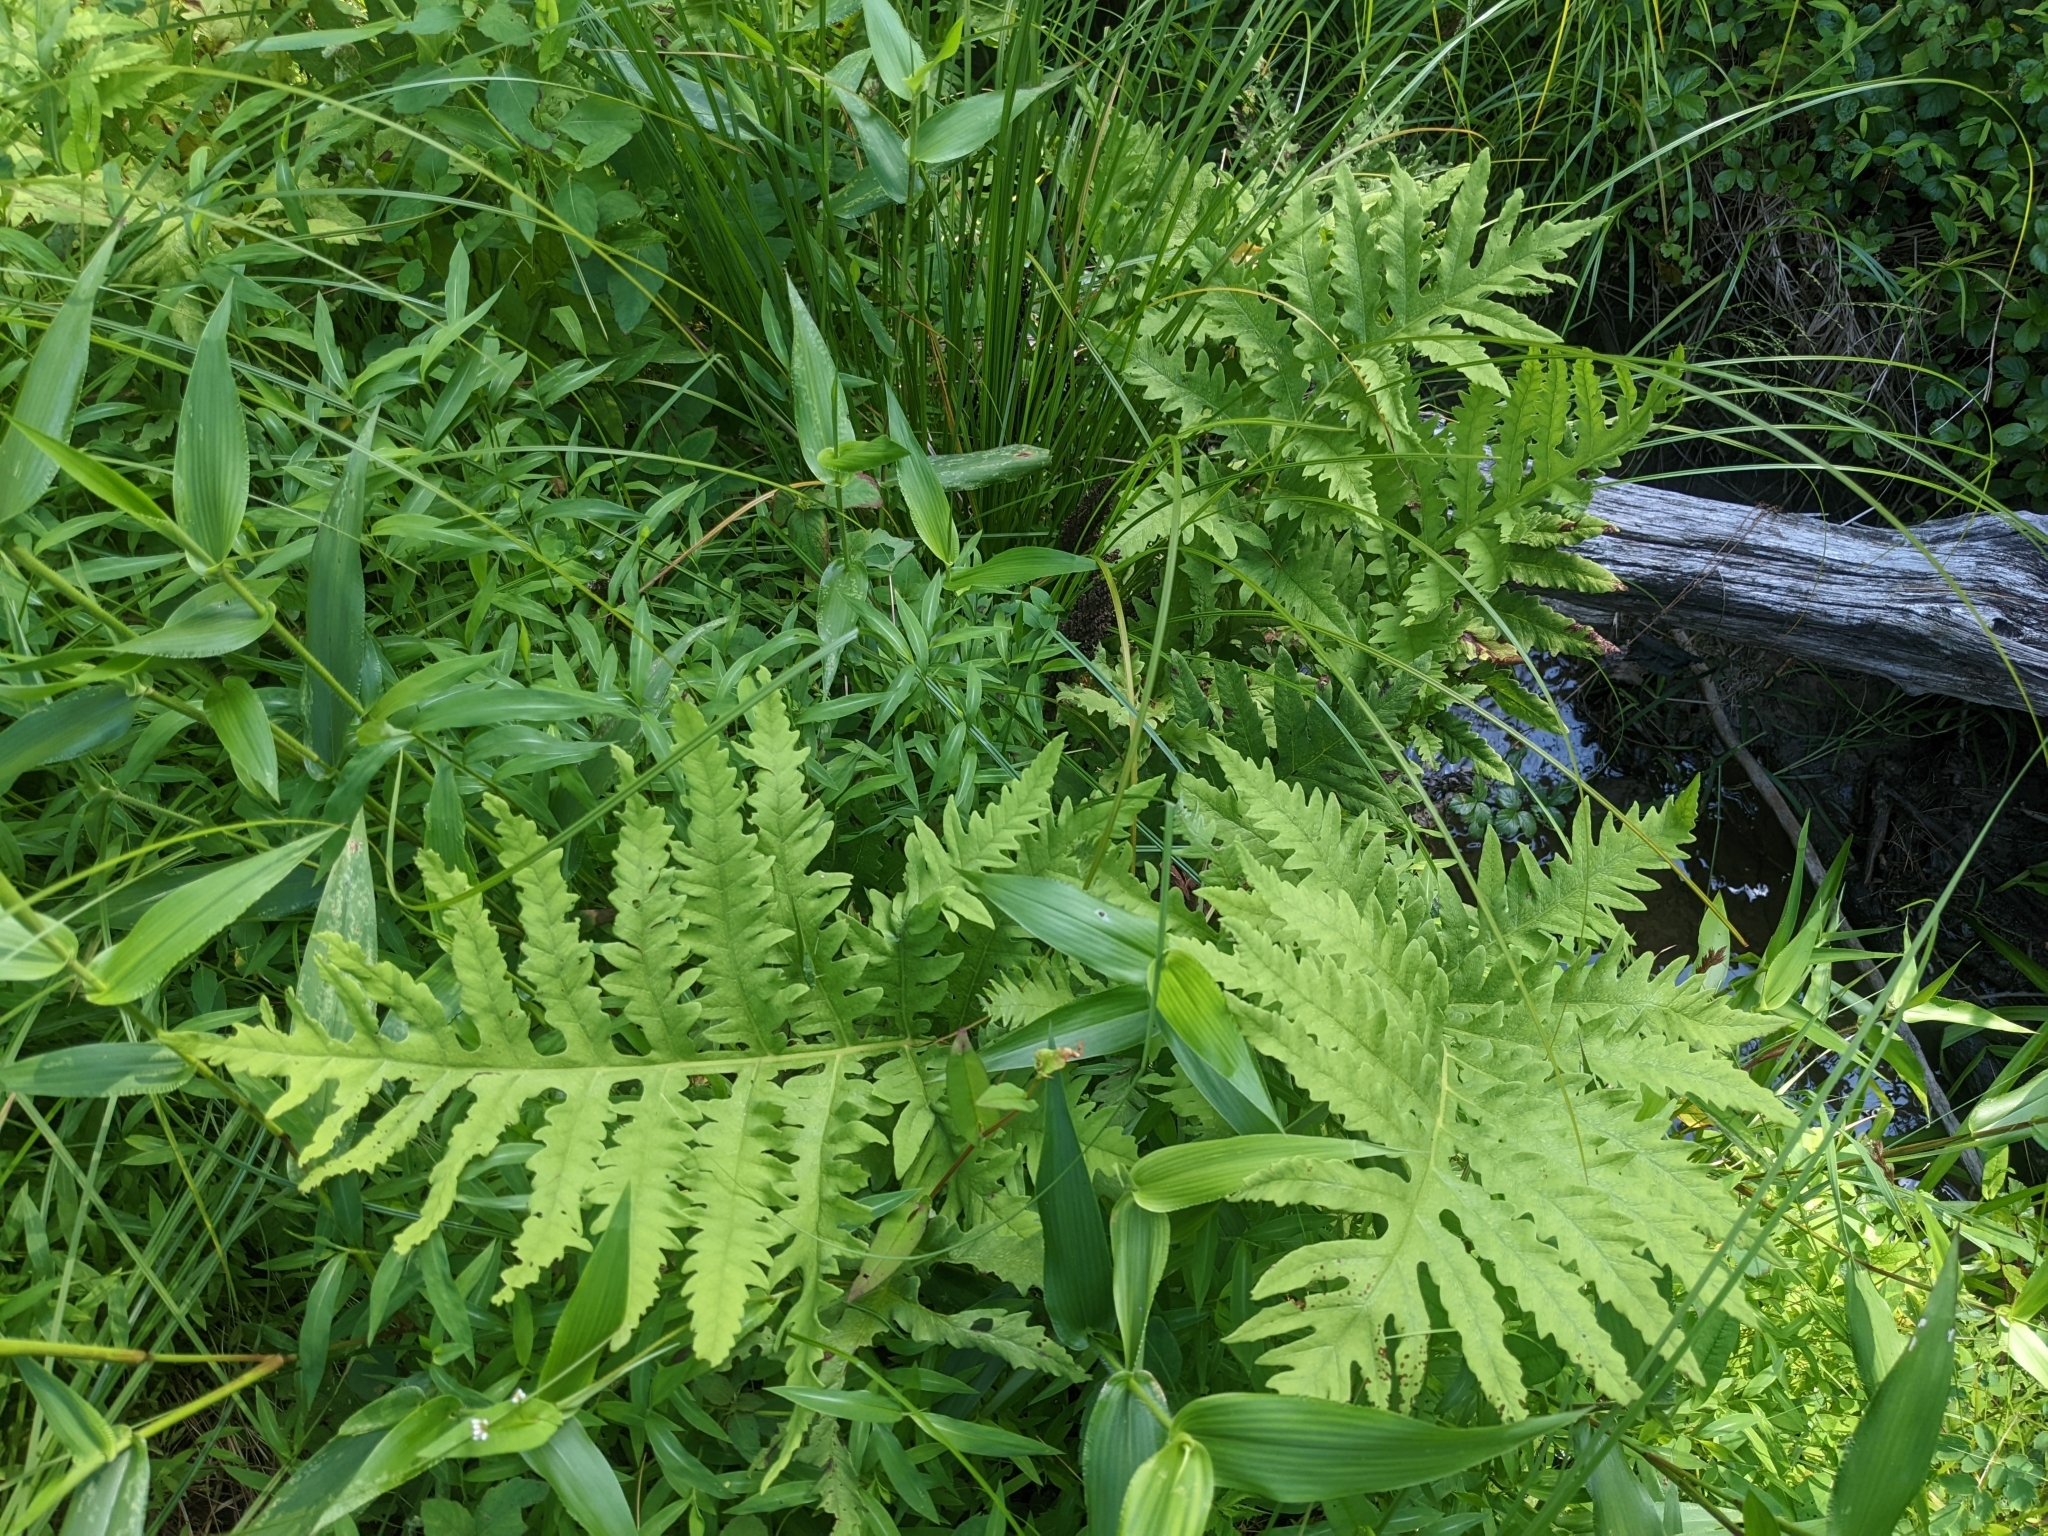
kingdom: Plantae
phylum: Tracheophyta
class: Polypodiopsida
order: Polypodiales
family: Onocleaceae
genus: Onoclea
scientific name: Onoclea sensibilis
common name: Sensitive fern
